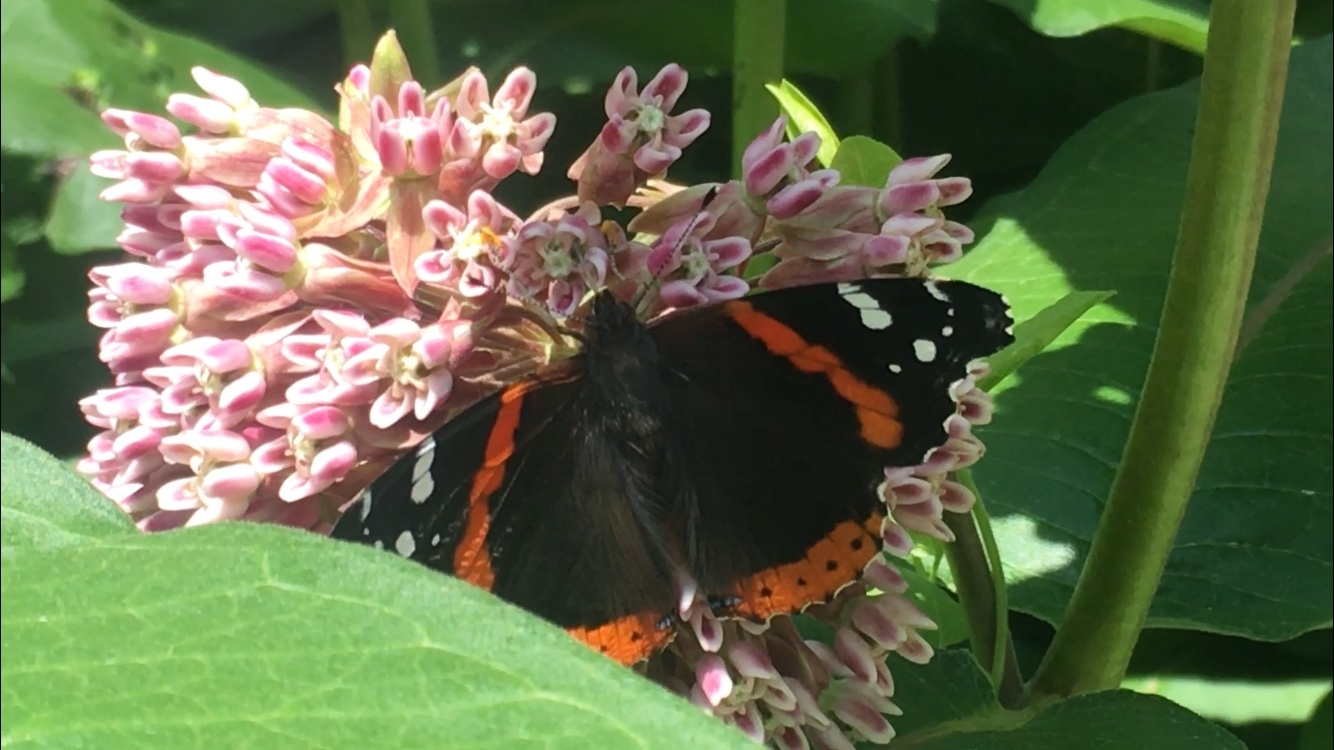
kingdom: Animalia
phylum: Arthropoda
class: Insecta
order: Lepidoptera
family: Nymphalidae
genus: Vanessa
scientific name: Vanessa atalanta
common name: Red admiral
